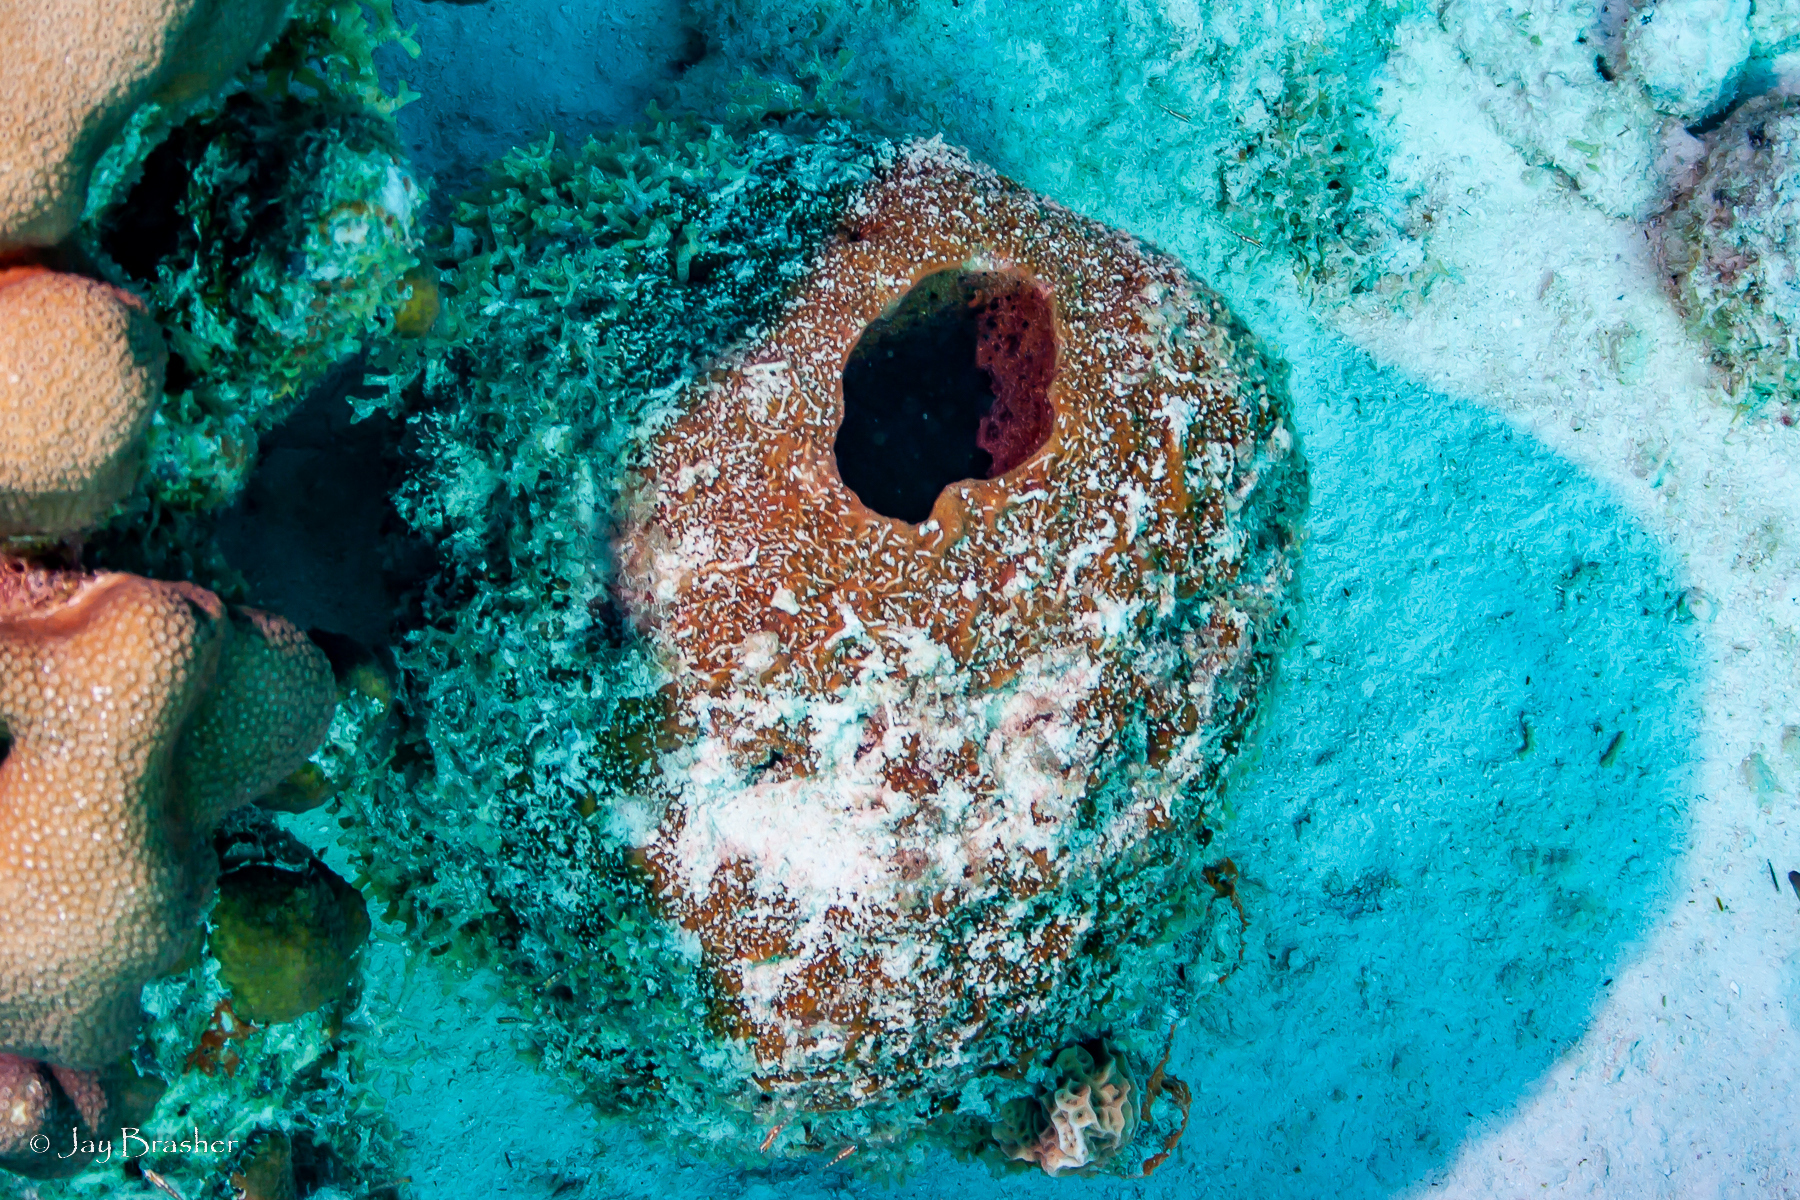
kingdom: Animalia
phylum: Porifera
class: Demospongiae
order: Biemnida
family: Biemnidae
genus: Neofibularia
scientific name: Neofibularia nolitangere
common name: Do-not-touch-me sponge
